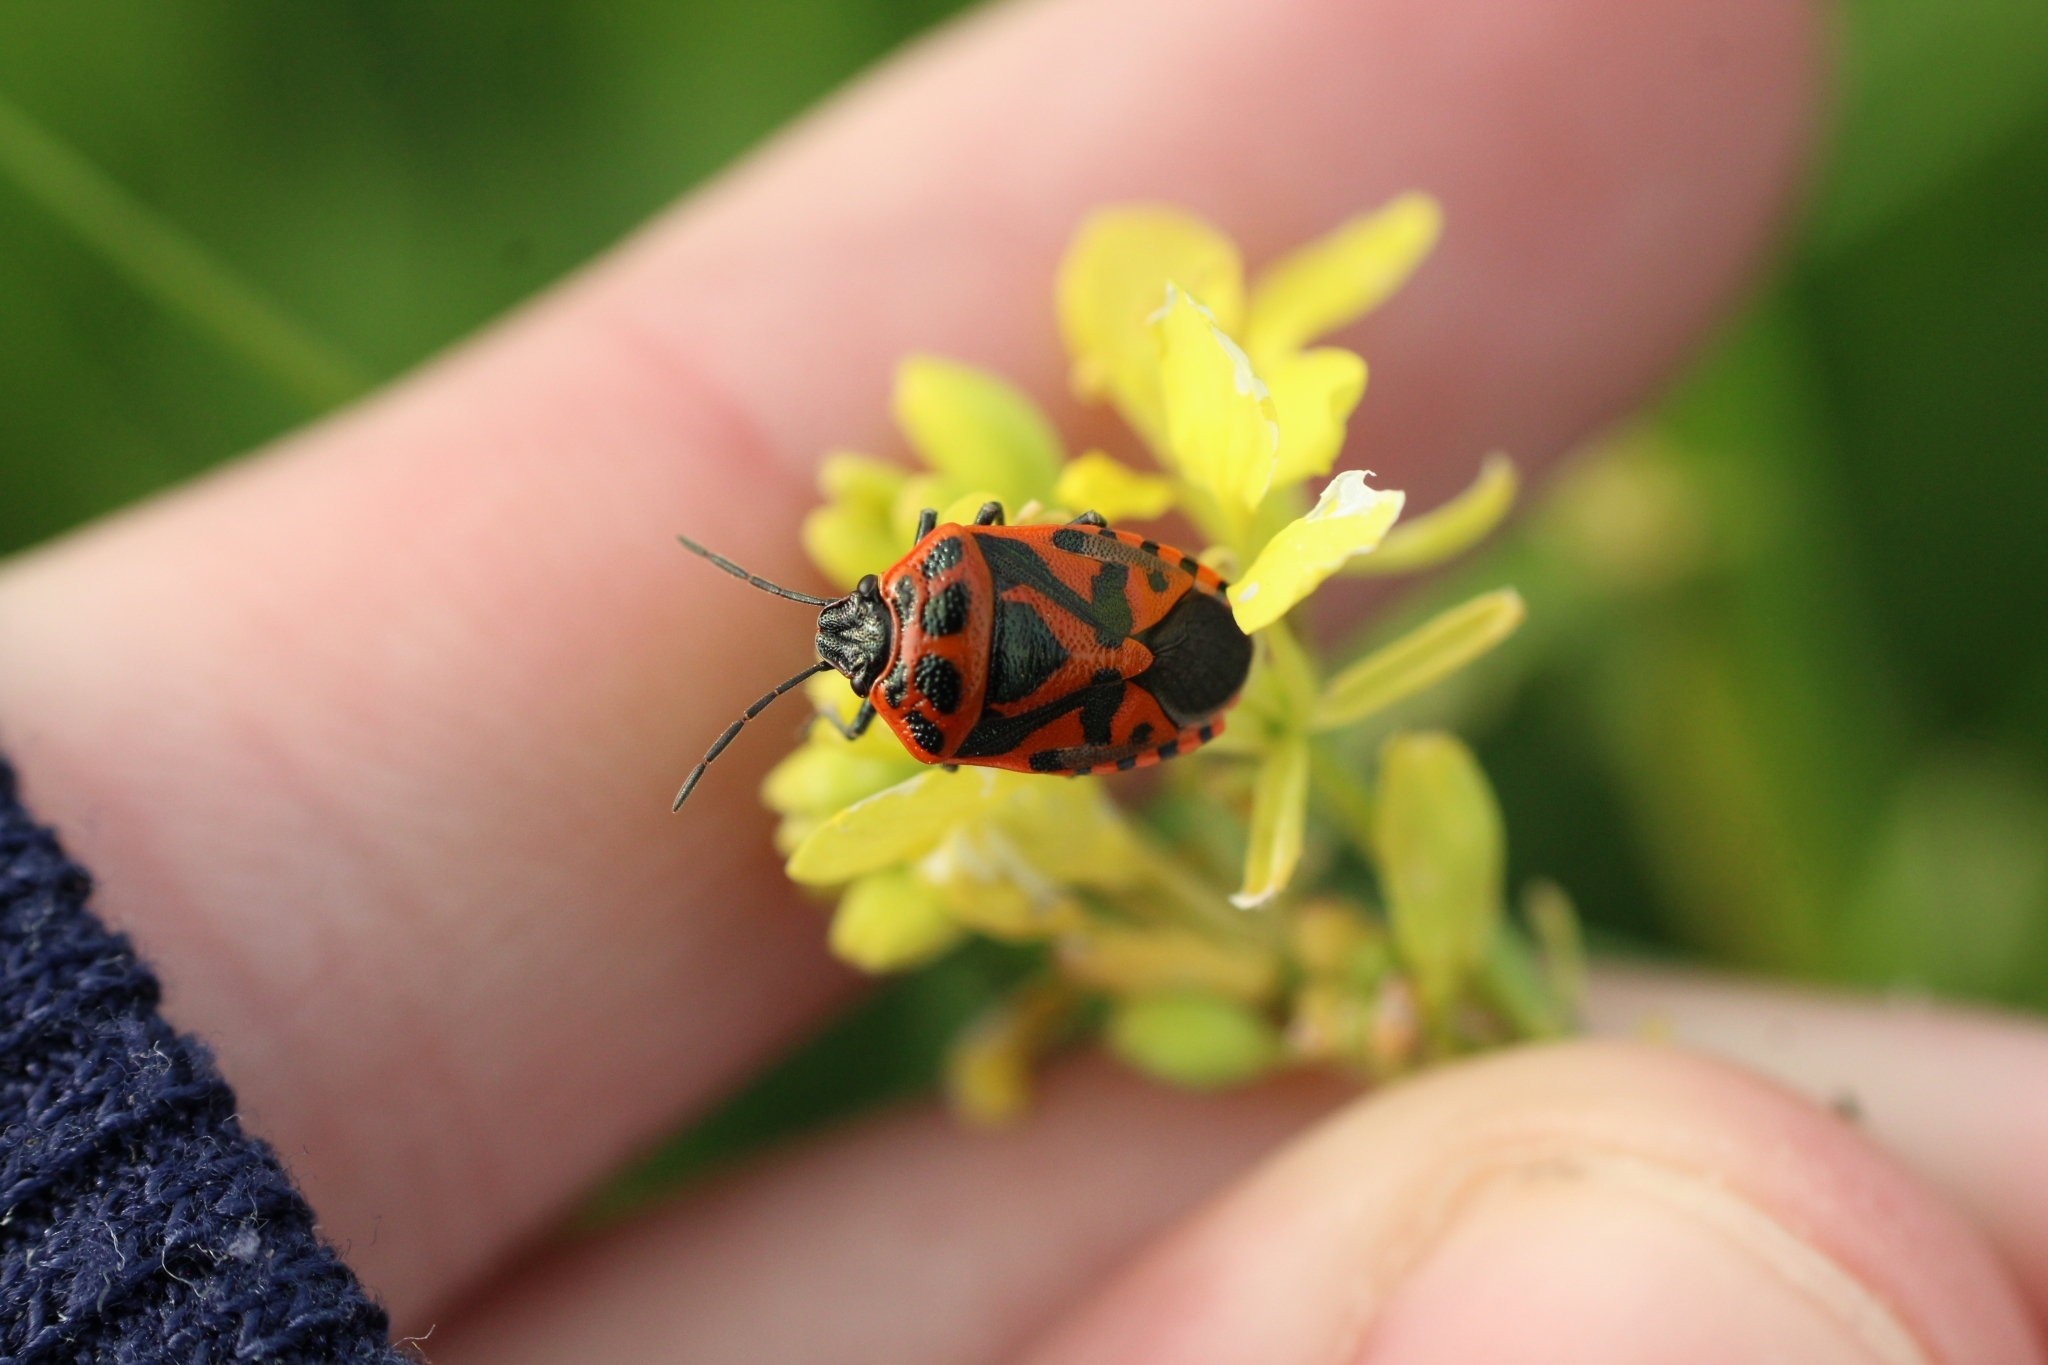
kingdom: Animalia
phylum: Arthropoda
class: Insecta
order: Hemiptera
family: Pentatomidae
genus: Eurydema
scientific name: Eurydema ornata
